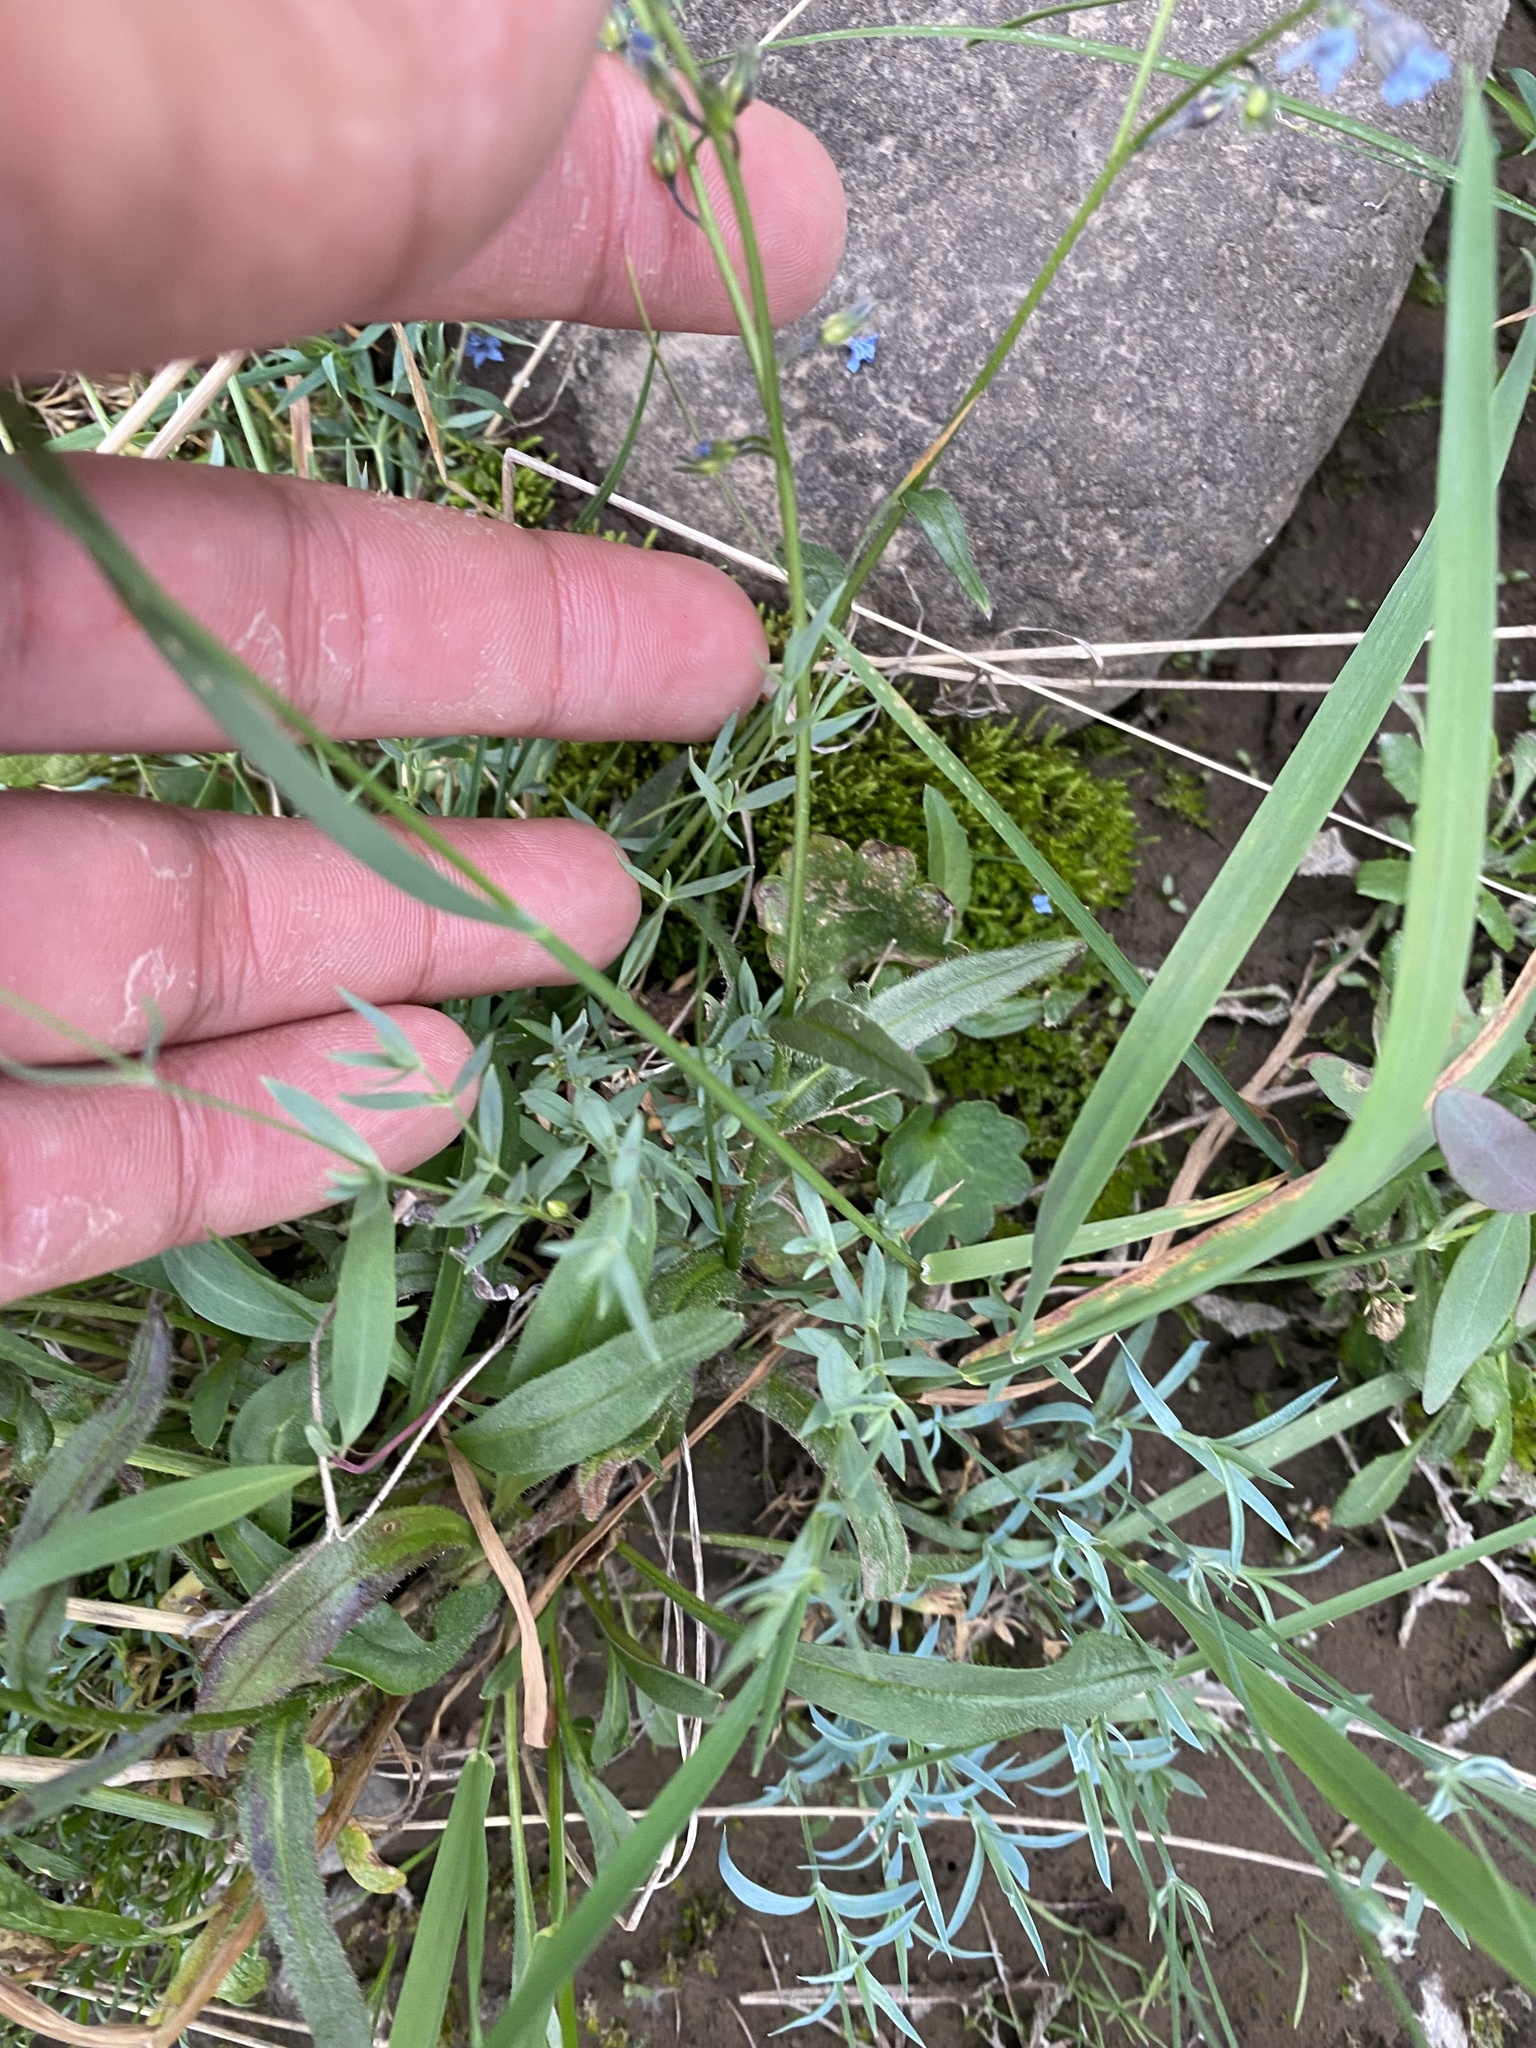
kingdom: Plantae
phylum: Tracheophyta
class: Magnoliopsida
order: Boraginales
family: Boraginaceae
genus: Myosotis
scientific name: Myosotis asiatica
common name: Asian forget-me-not
